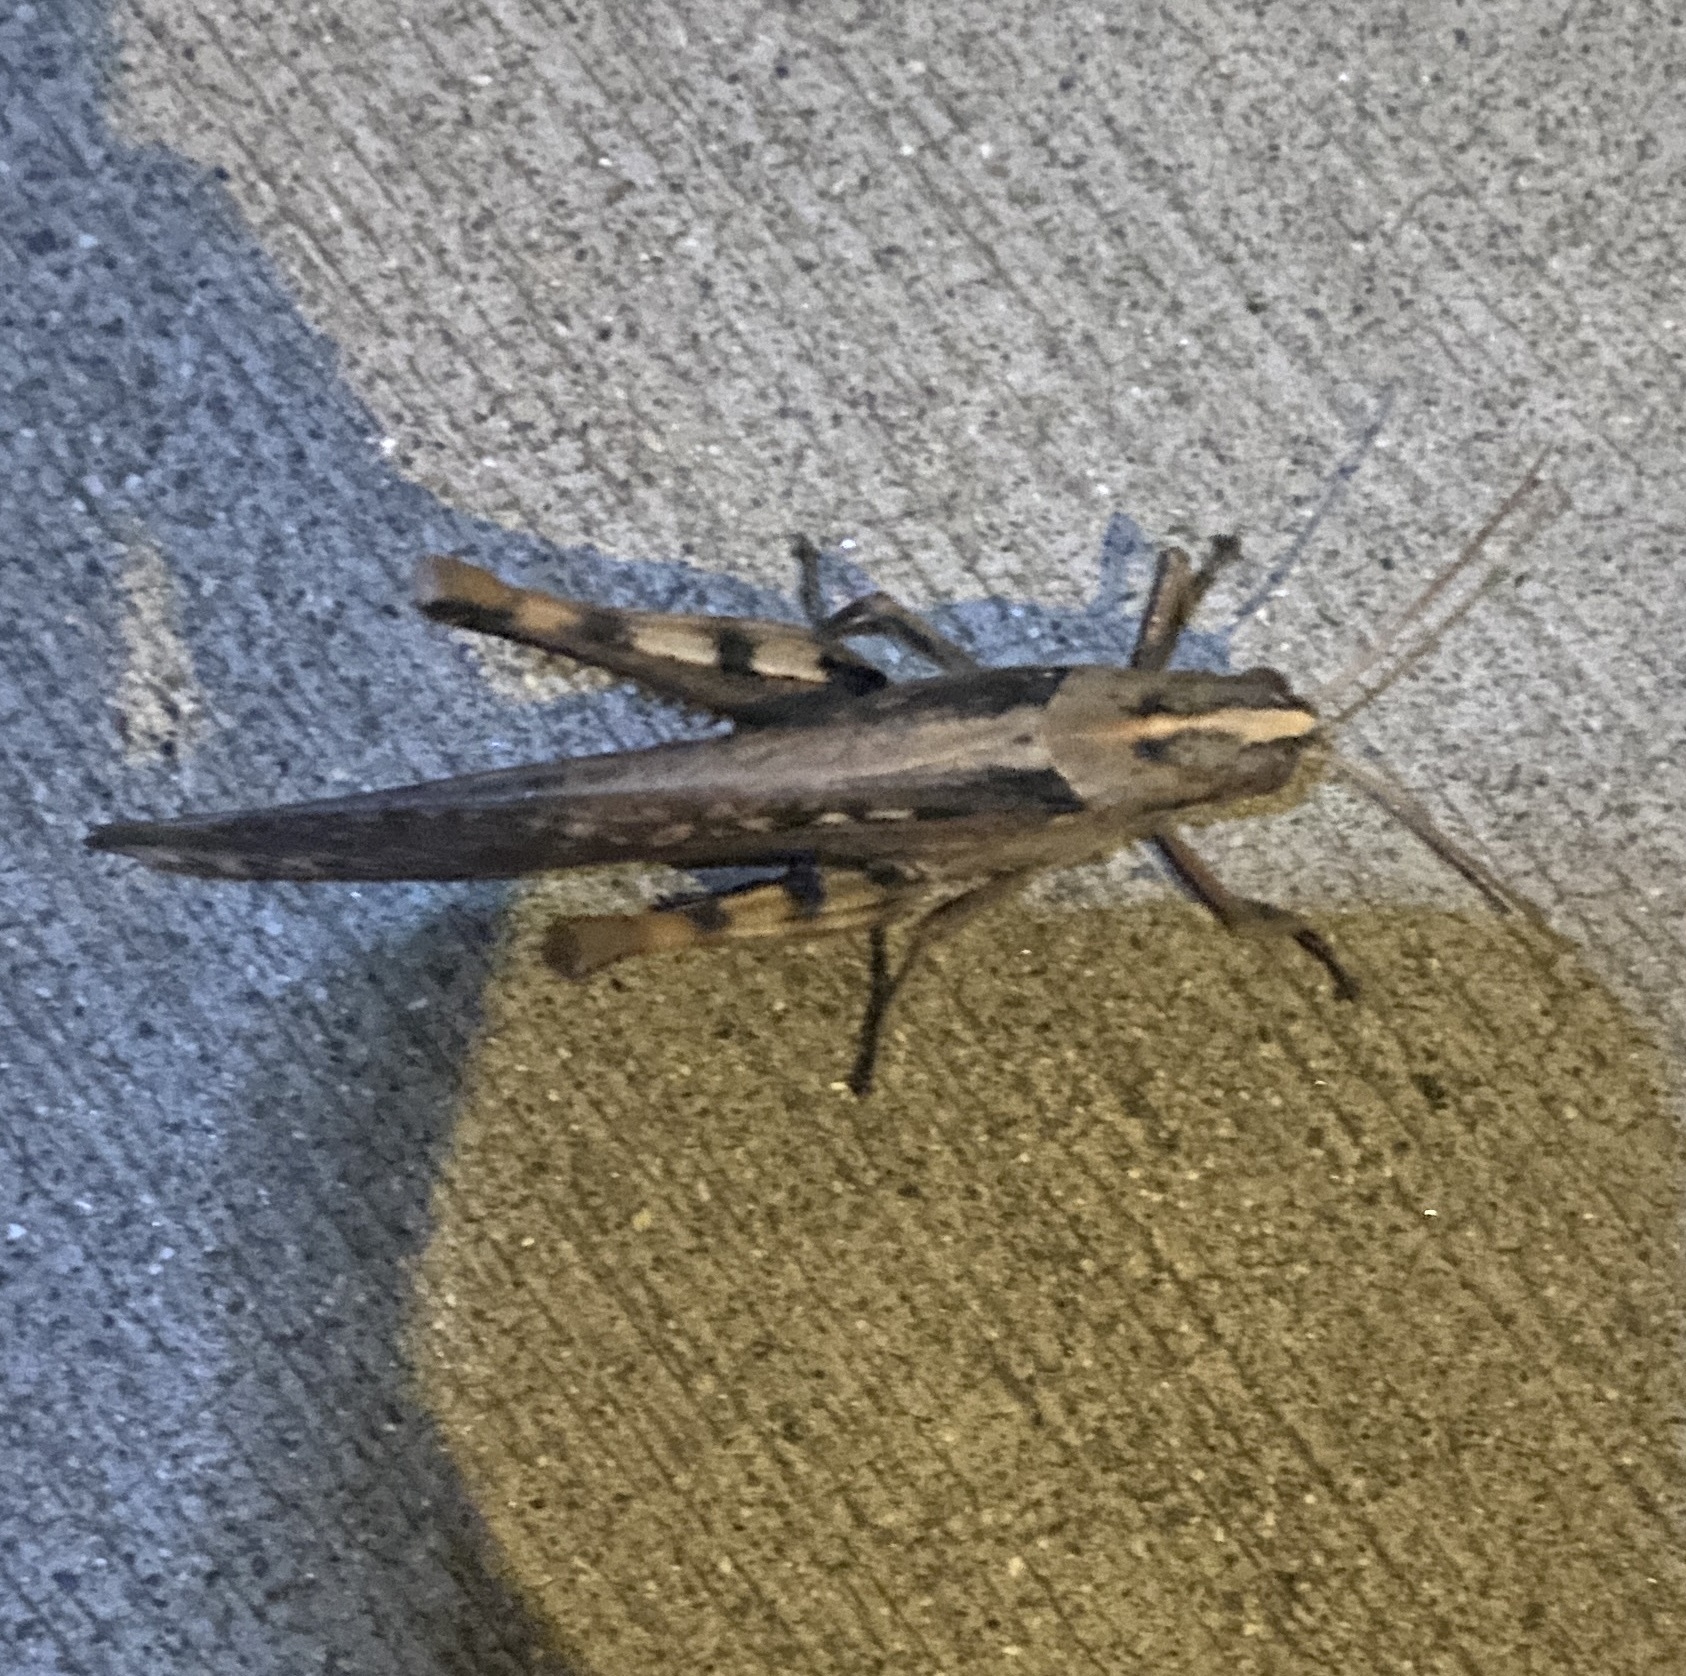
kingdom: Animalia
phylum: Arthropoda
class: Insecta
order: Orthoptera
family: Acrididae
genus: Schistocerca
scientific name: Schistocerca nitens
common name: Vagrant grasshopper
